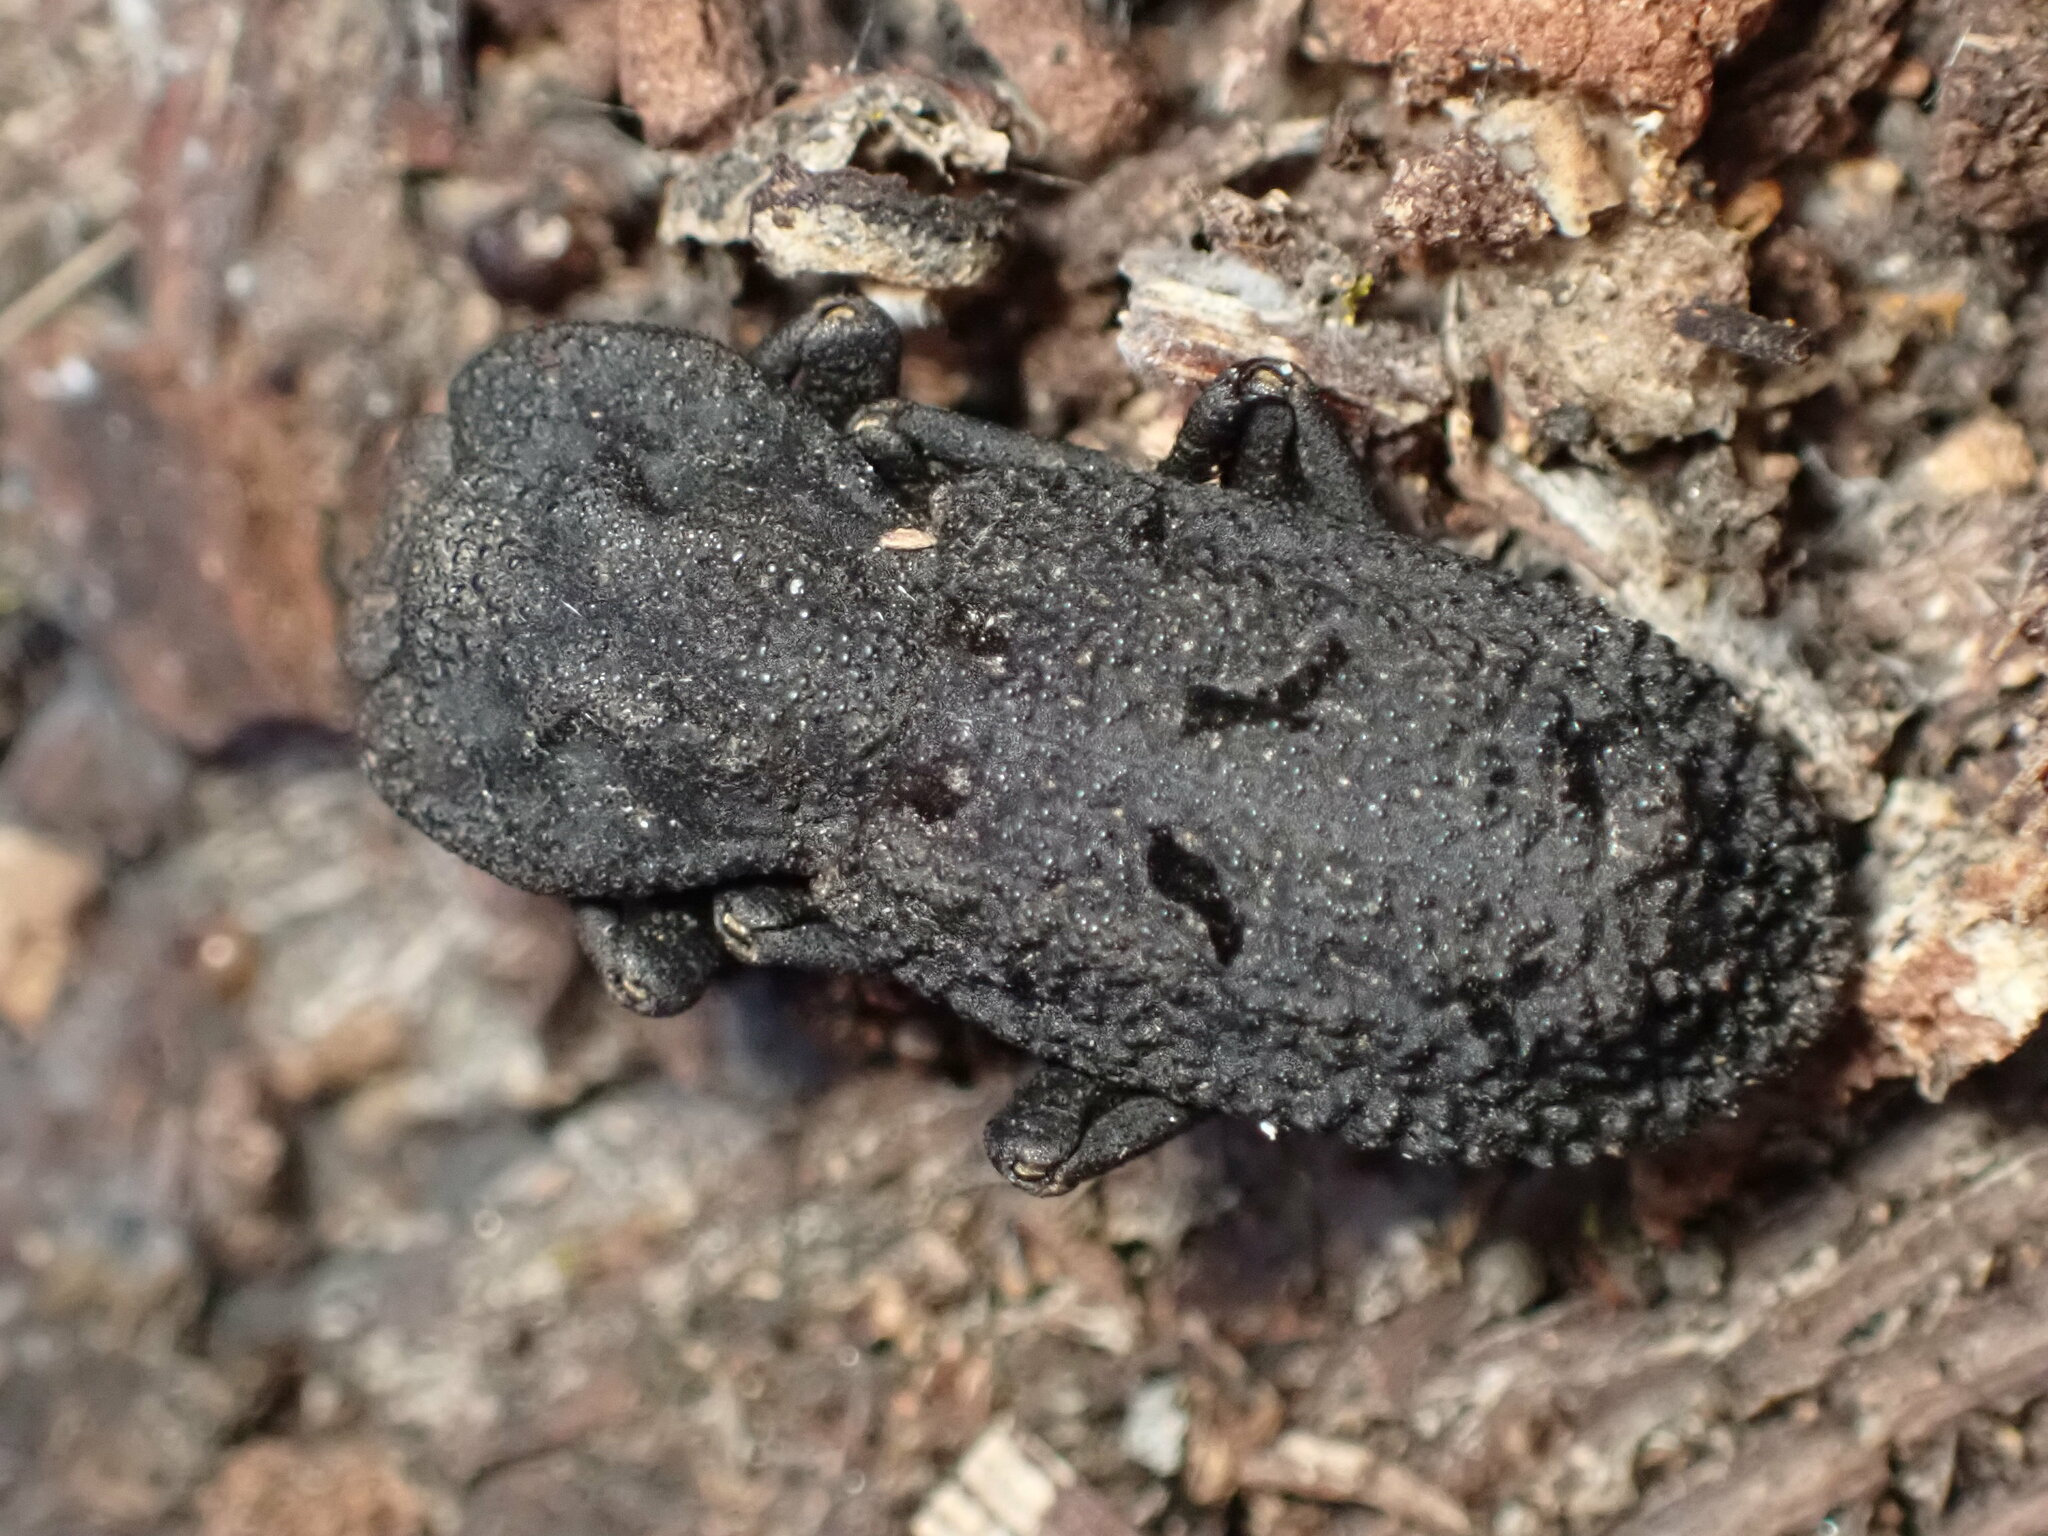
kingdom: Animalia
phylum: Arthropoda
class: Insecta
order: Coleoptera
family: Zopheridae
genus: Phloeodes
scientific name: Phloeodes diabolicus
